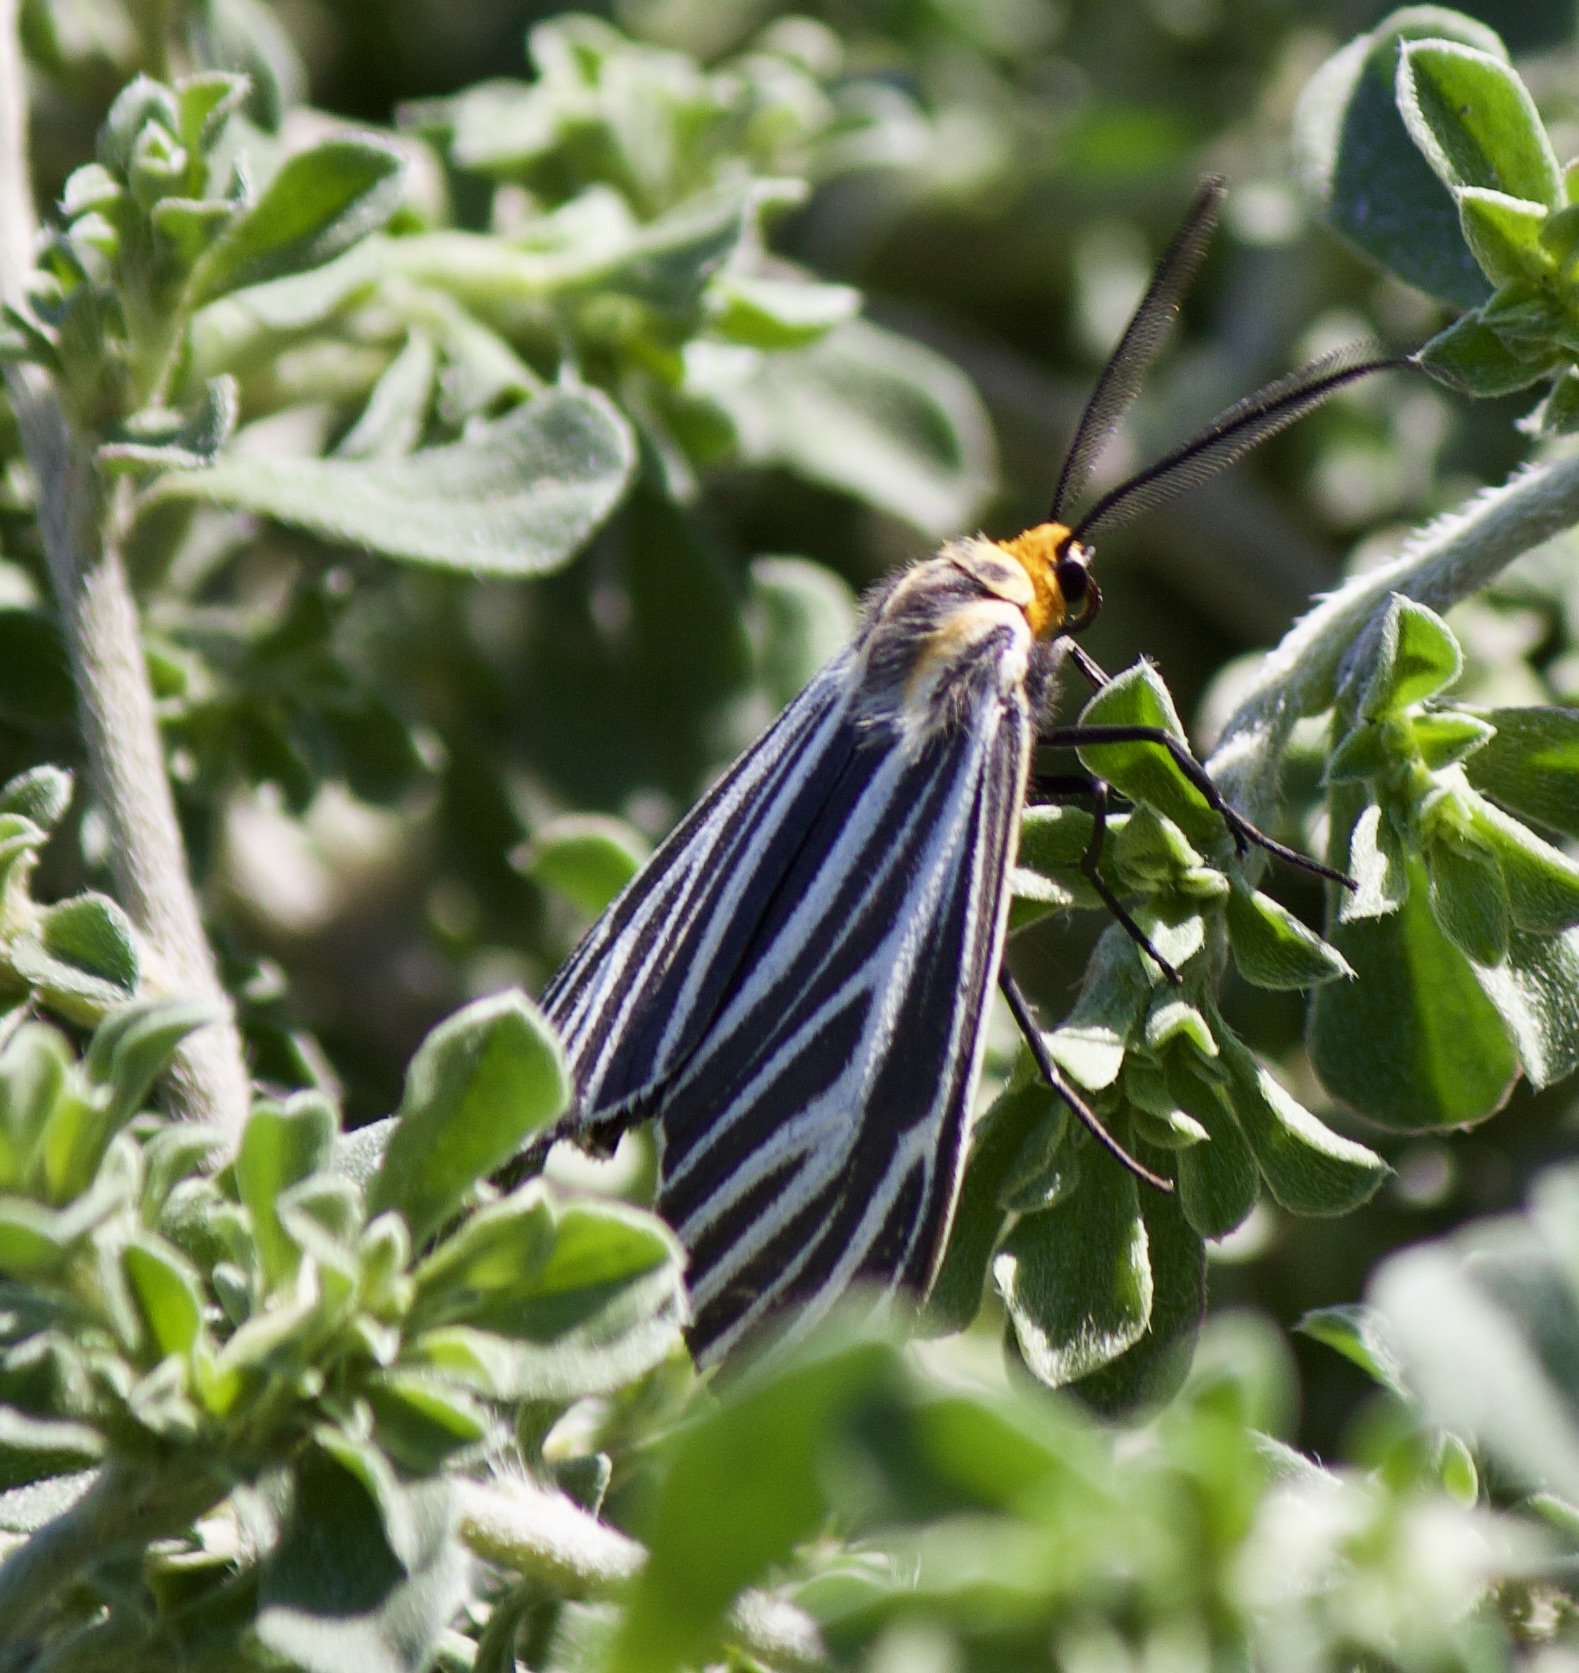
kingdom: Animalia
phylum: Arthropoda
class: Insecta
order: Lepidoptera
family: Erebidae
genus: Ctenucha
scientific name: Ctenucha vittigerum
